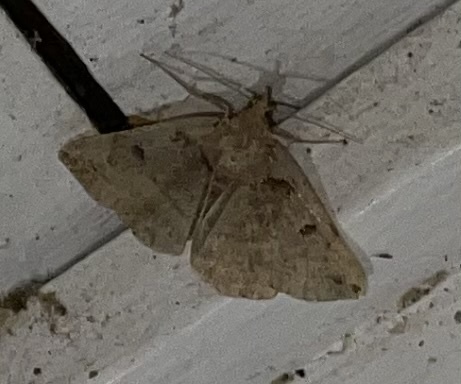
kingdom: Animalia
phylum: Arthropoda
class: Insecta
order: Lepidoptera
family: Erebidae
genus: Zanclognatha
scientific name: Zanclognatha laevigata
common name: Variable fan-foot
